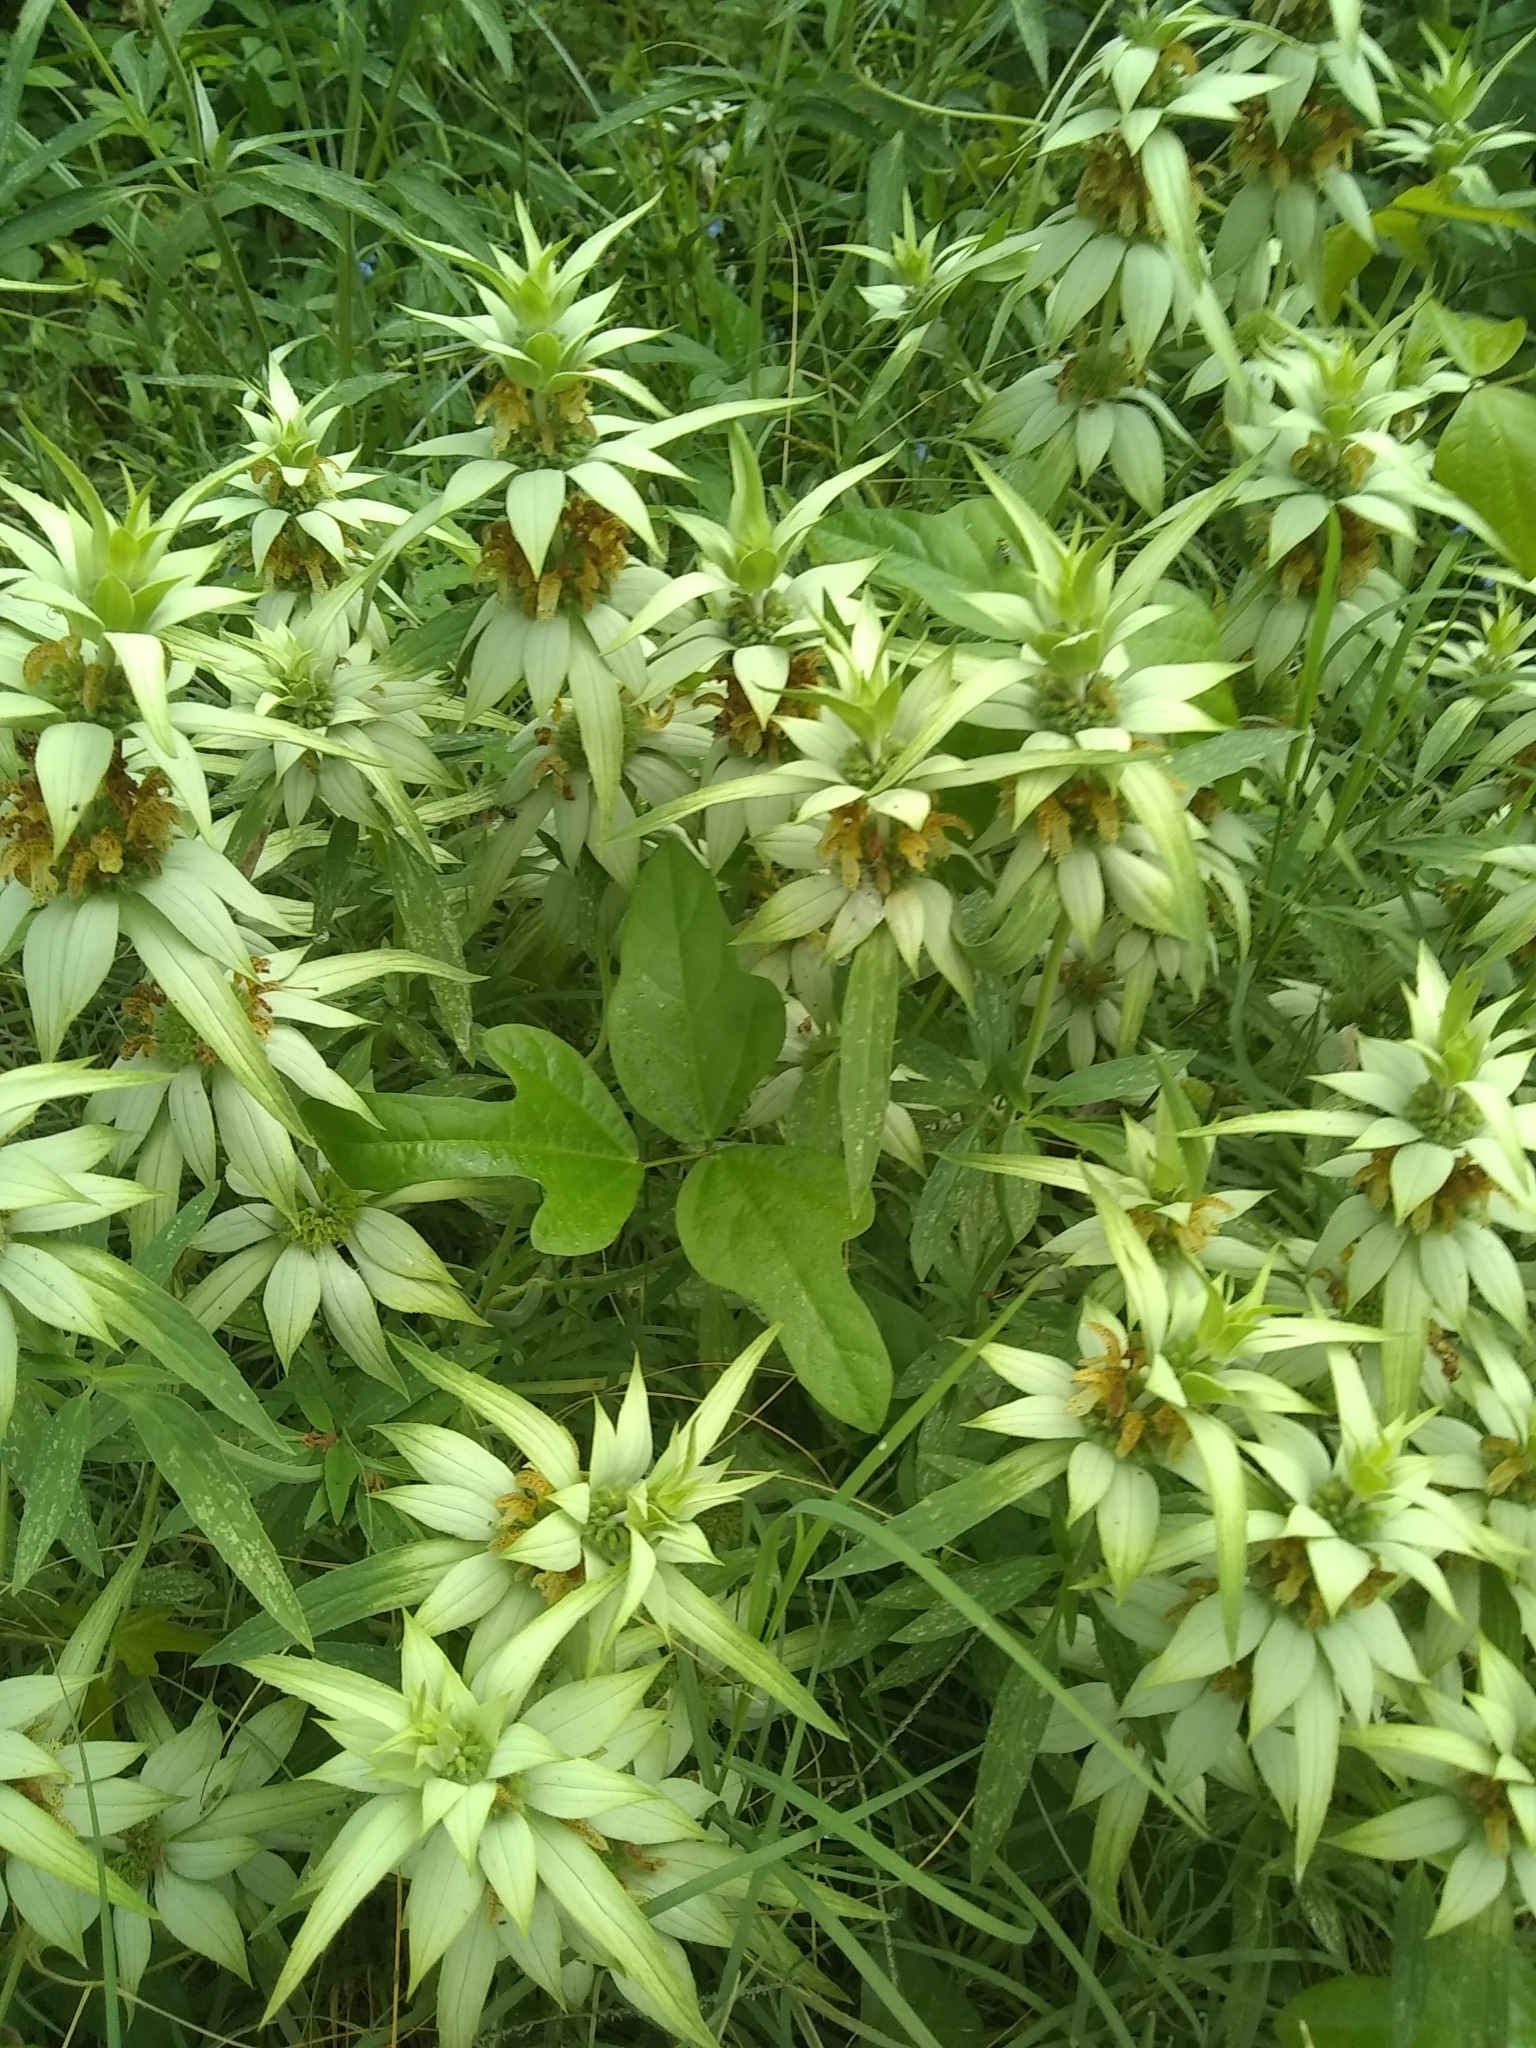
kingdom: Plantae
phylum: Tracheophyta
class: Magnoliopsida
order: Lamiales
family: Lamiaceae
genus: Monarda
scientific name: Monarda punctata
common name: Dotted monarda
